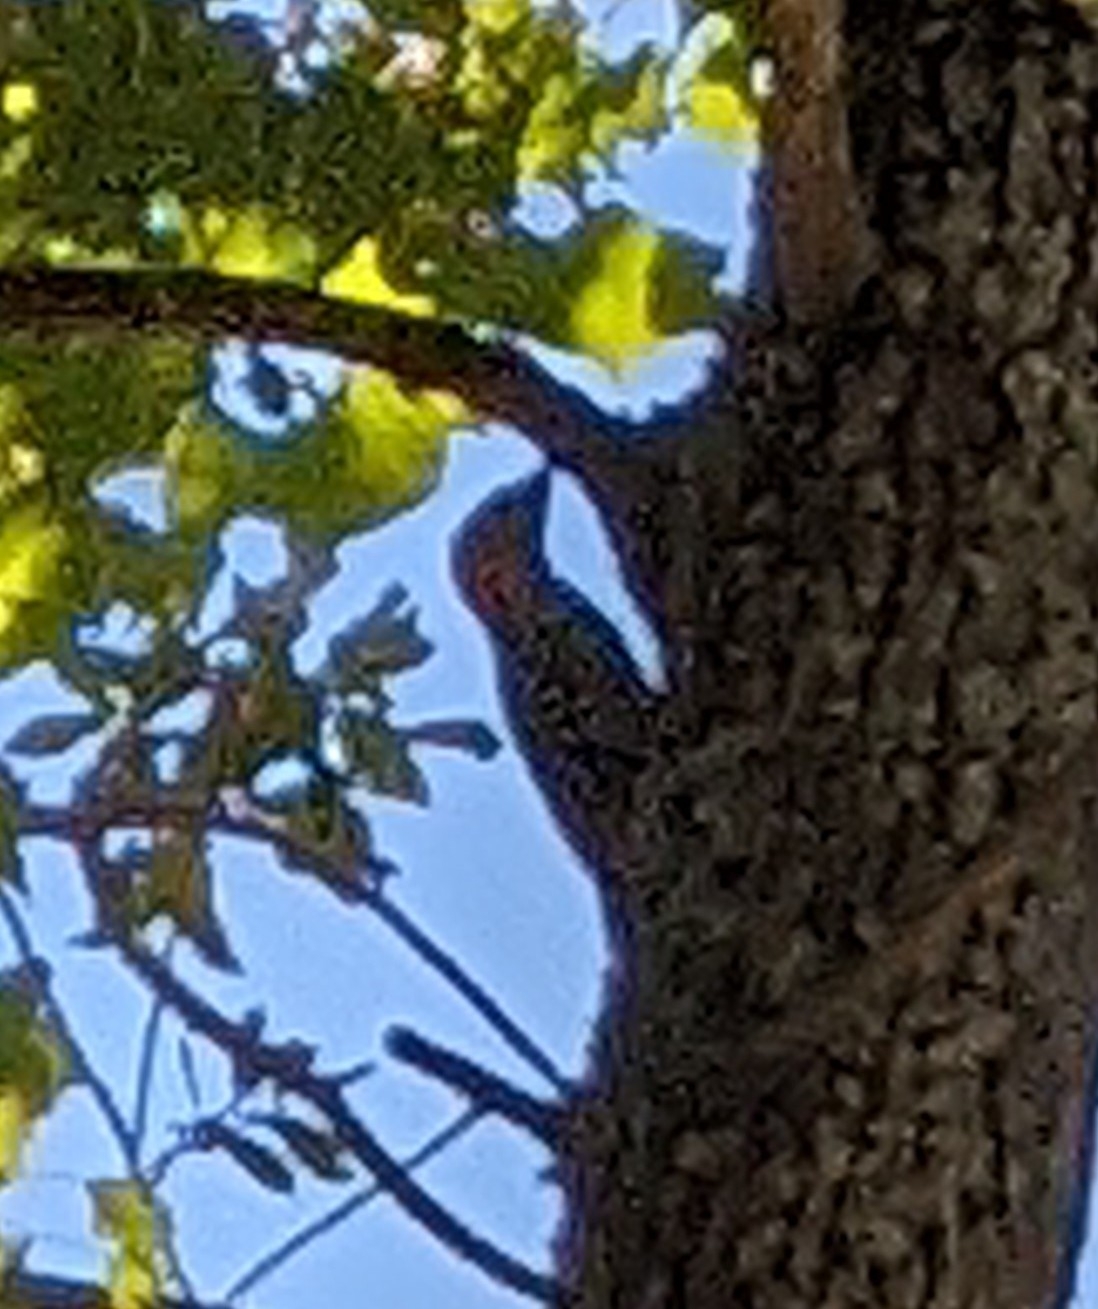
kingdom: Animalia
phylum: Chordata
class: Aves
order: Piciformes
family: Picidae
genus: Melanerpes
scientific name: Melanerpes carolinus
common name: Red-bellied woodpecker
